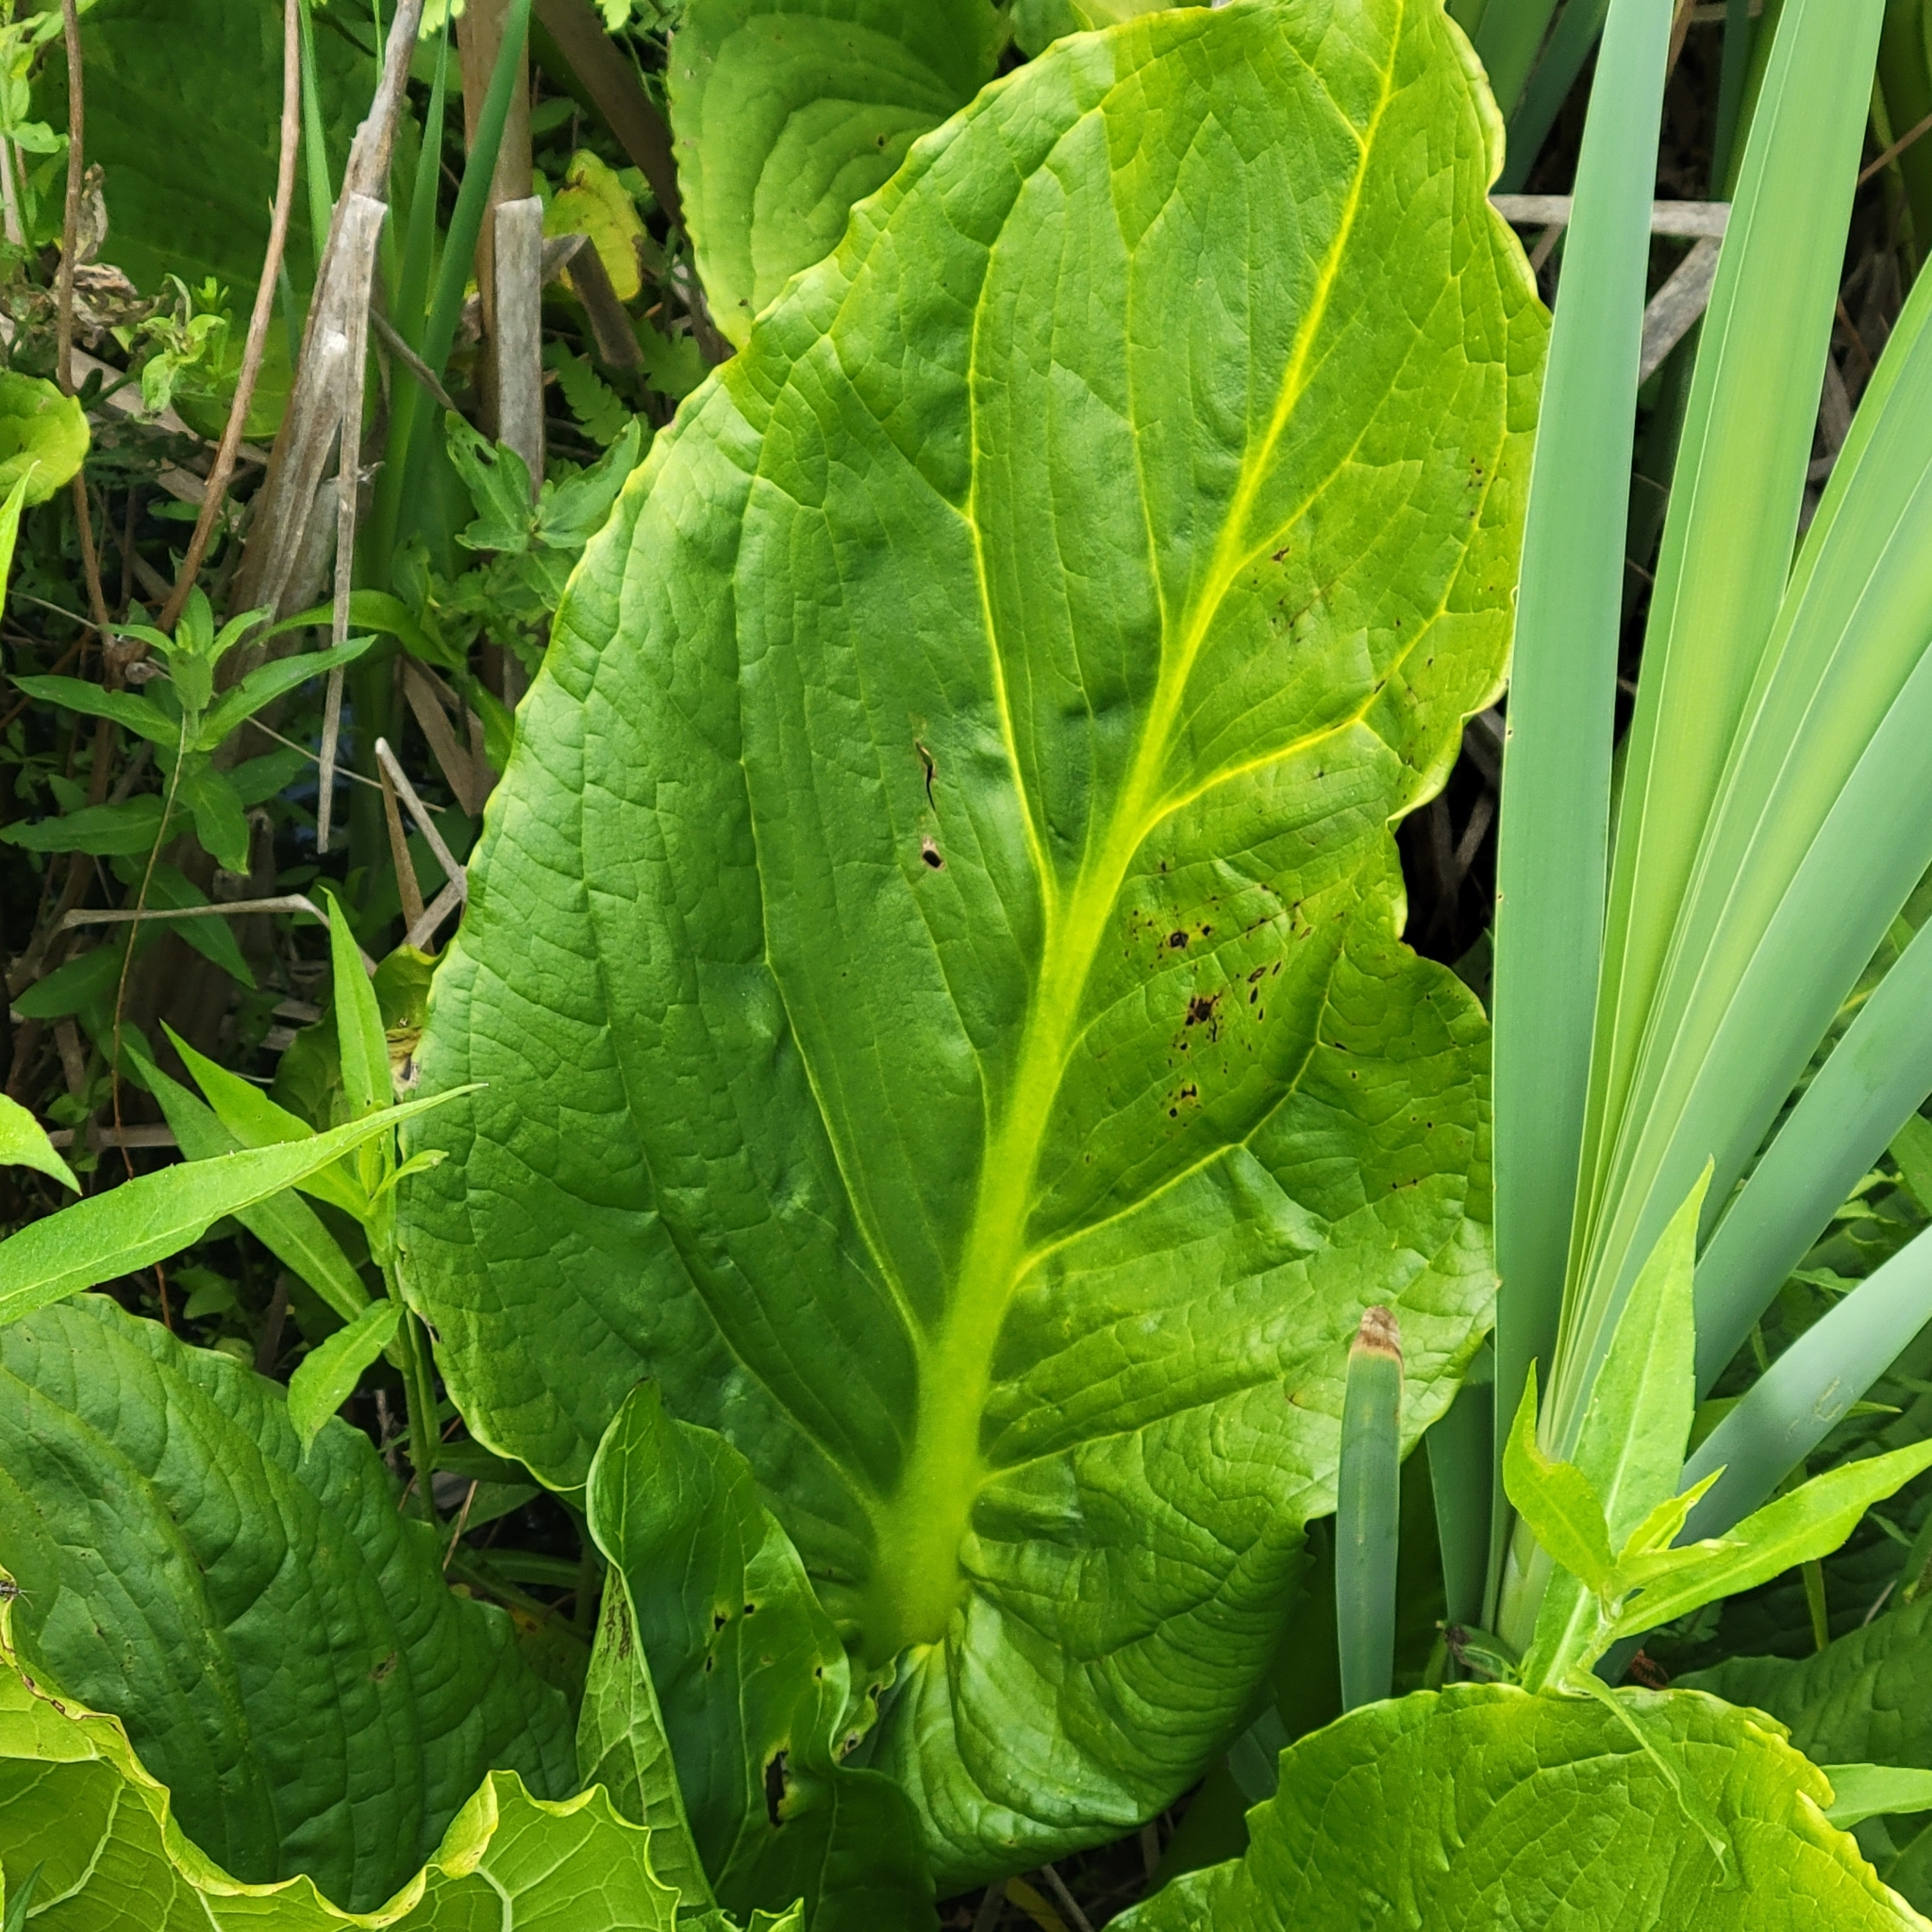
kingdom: Plantae
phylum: Tracheophyta
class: Liliopsida
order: Alismatales
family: Araceae
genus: Symplocarpus
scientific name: Symplocarpus foetidus
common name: Eastern skunk cabbage
